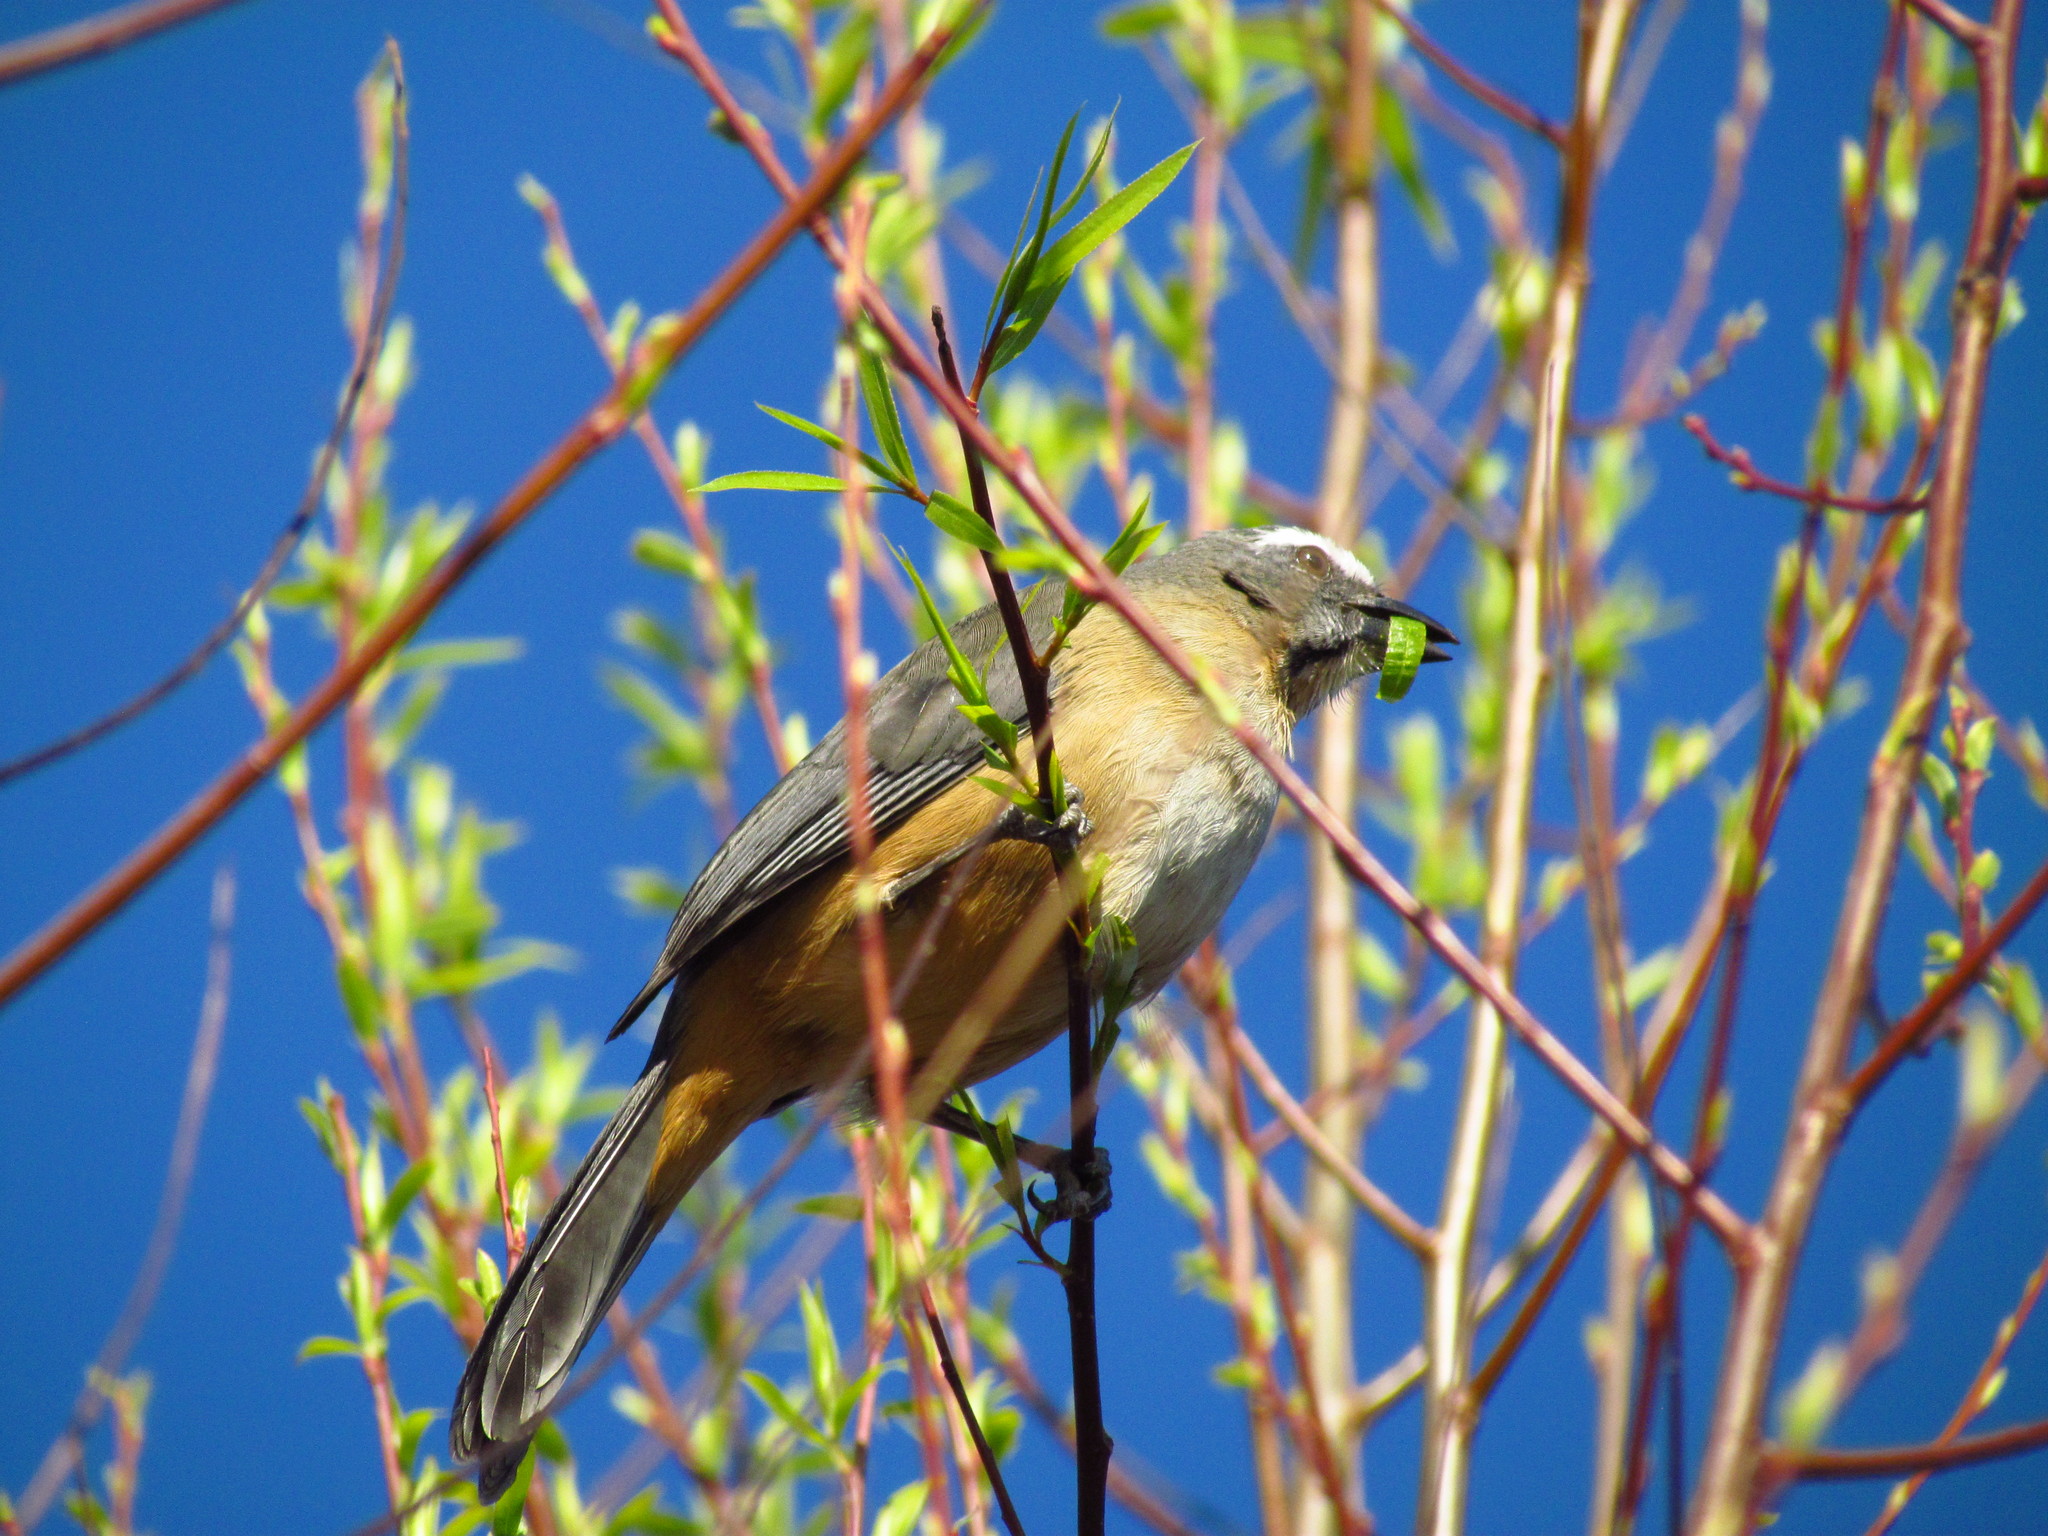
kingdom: Animalia
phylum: Chordata
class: Aves
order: Passeriformes
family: Thraupidae
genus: Saltator
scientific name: Saltator coerulescens
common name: Grayish saltator
